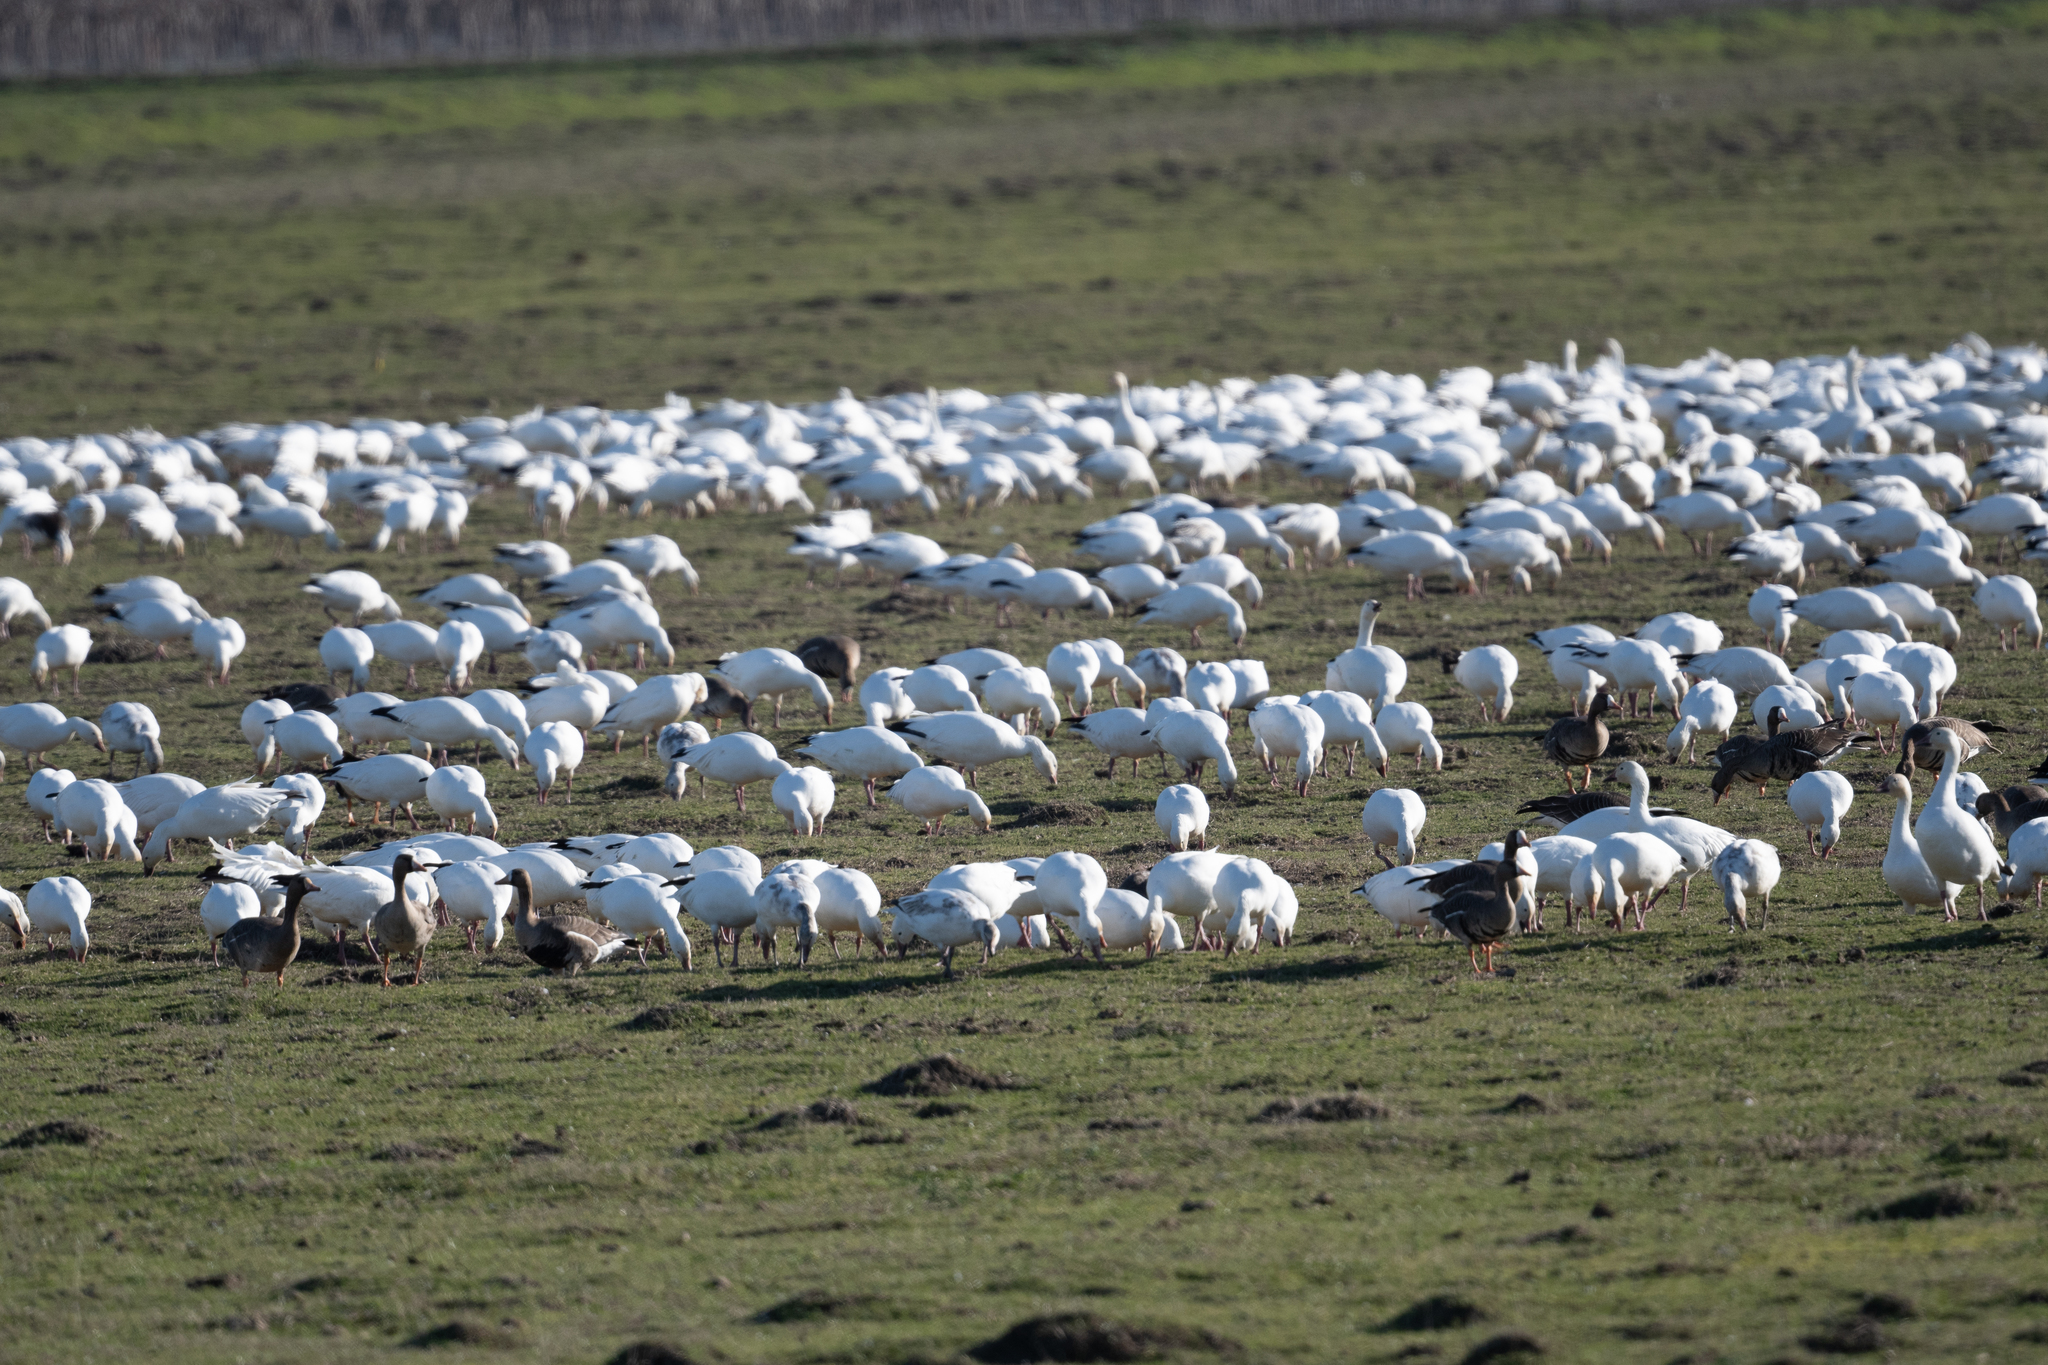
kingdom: Animalia
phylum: Chordata
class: Aves
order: Anseriformes
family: Anatidae
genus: Anser
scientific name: Anser caerulescens
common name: Snow goose
